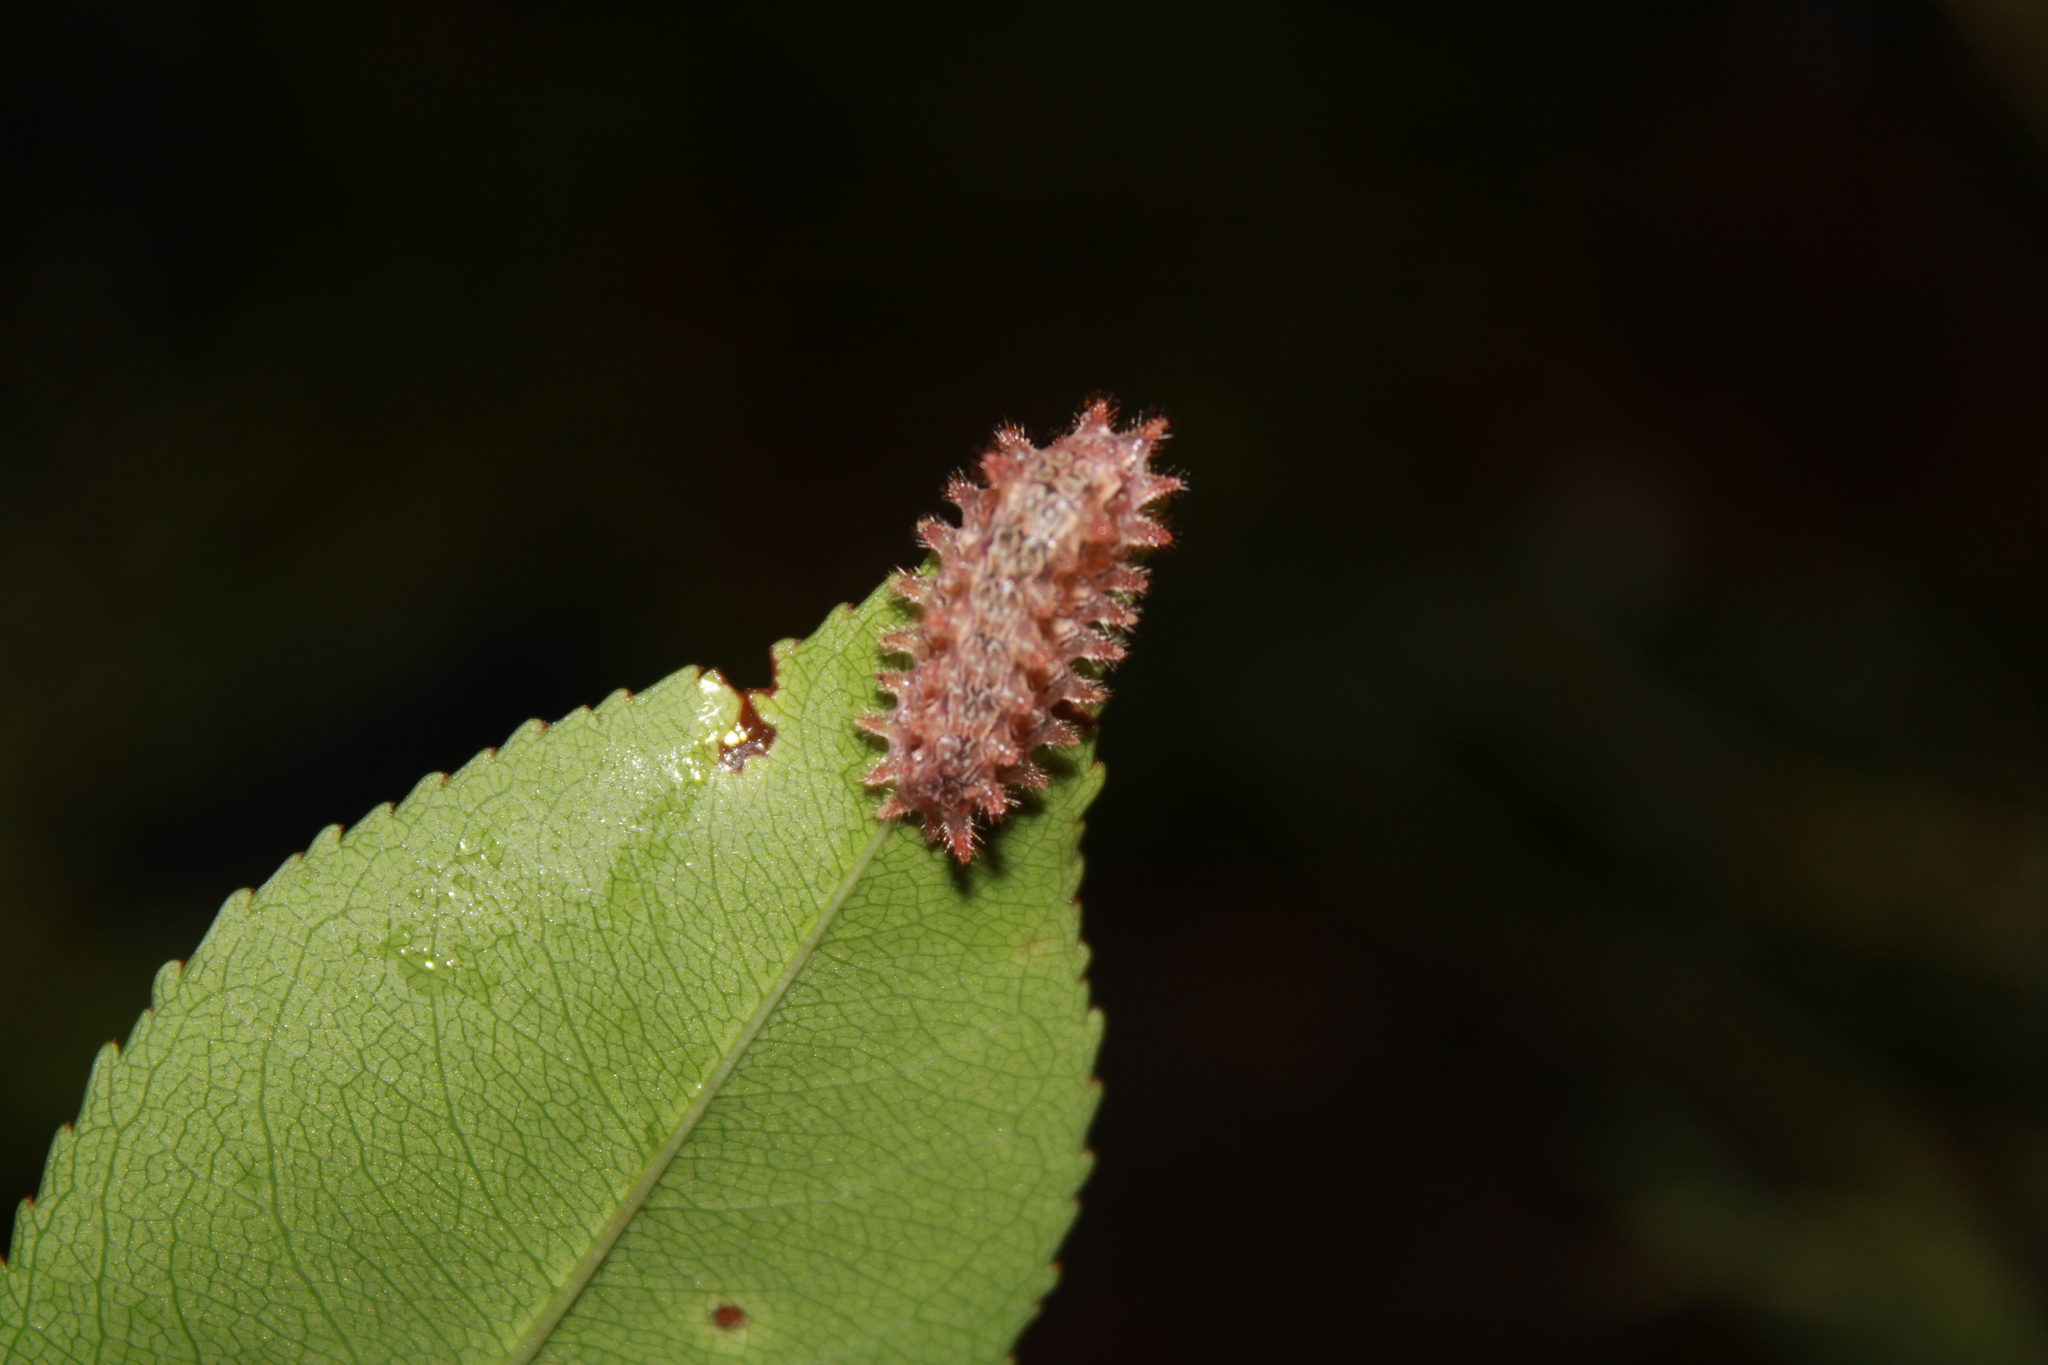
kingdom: Animalia
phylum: Arthropoda
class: Insecta
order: Lepidoptera
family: Limacodidae
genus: Euclea
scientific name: Euclea delphinii
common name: Spiny oak-slug moth
